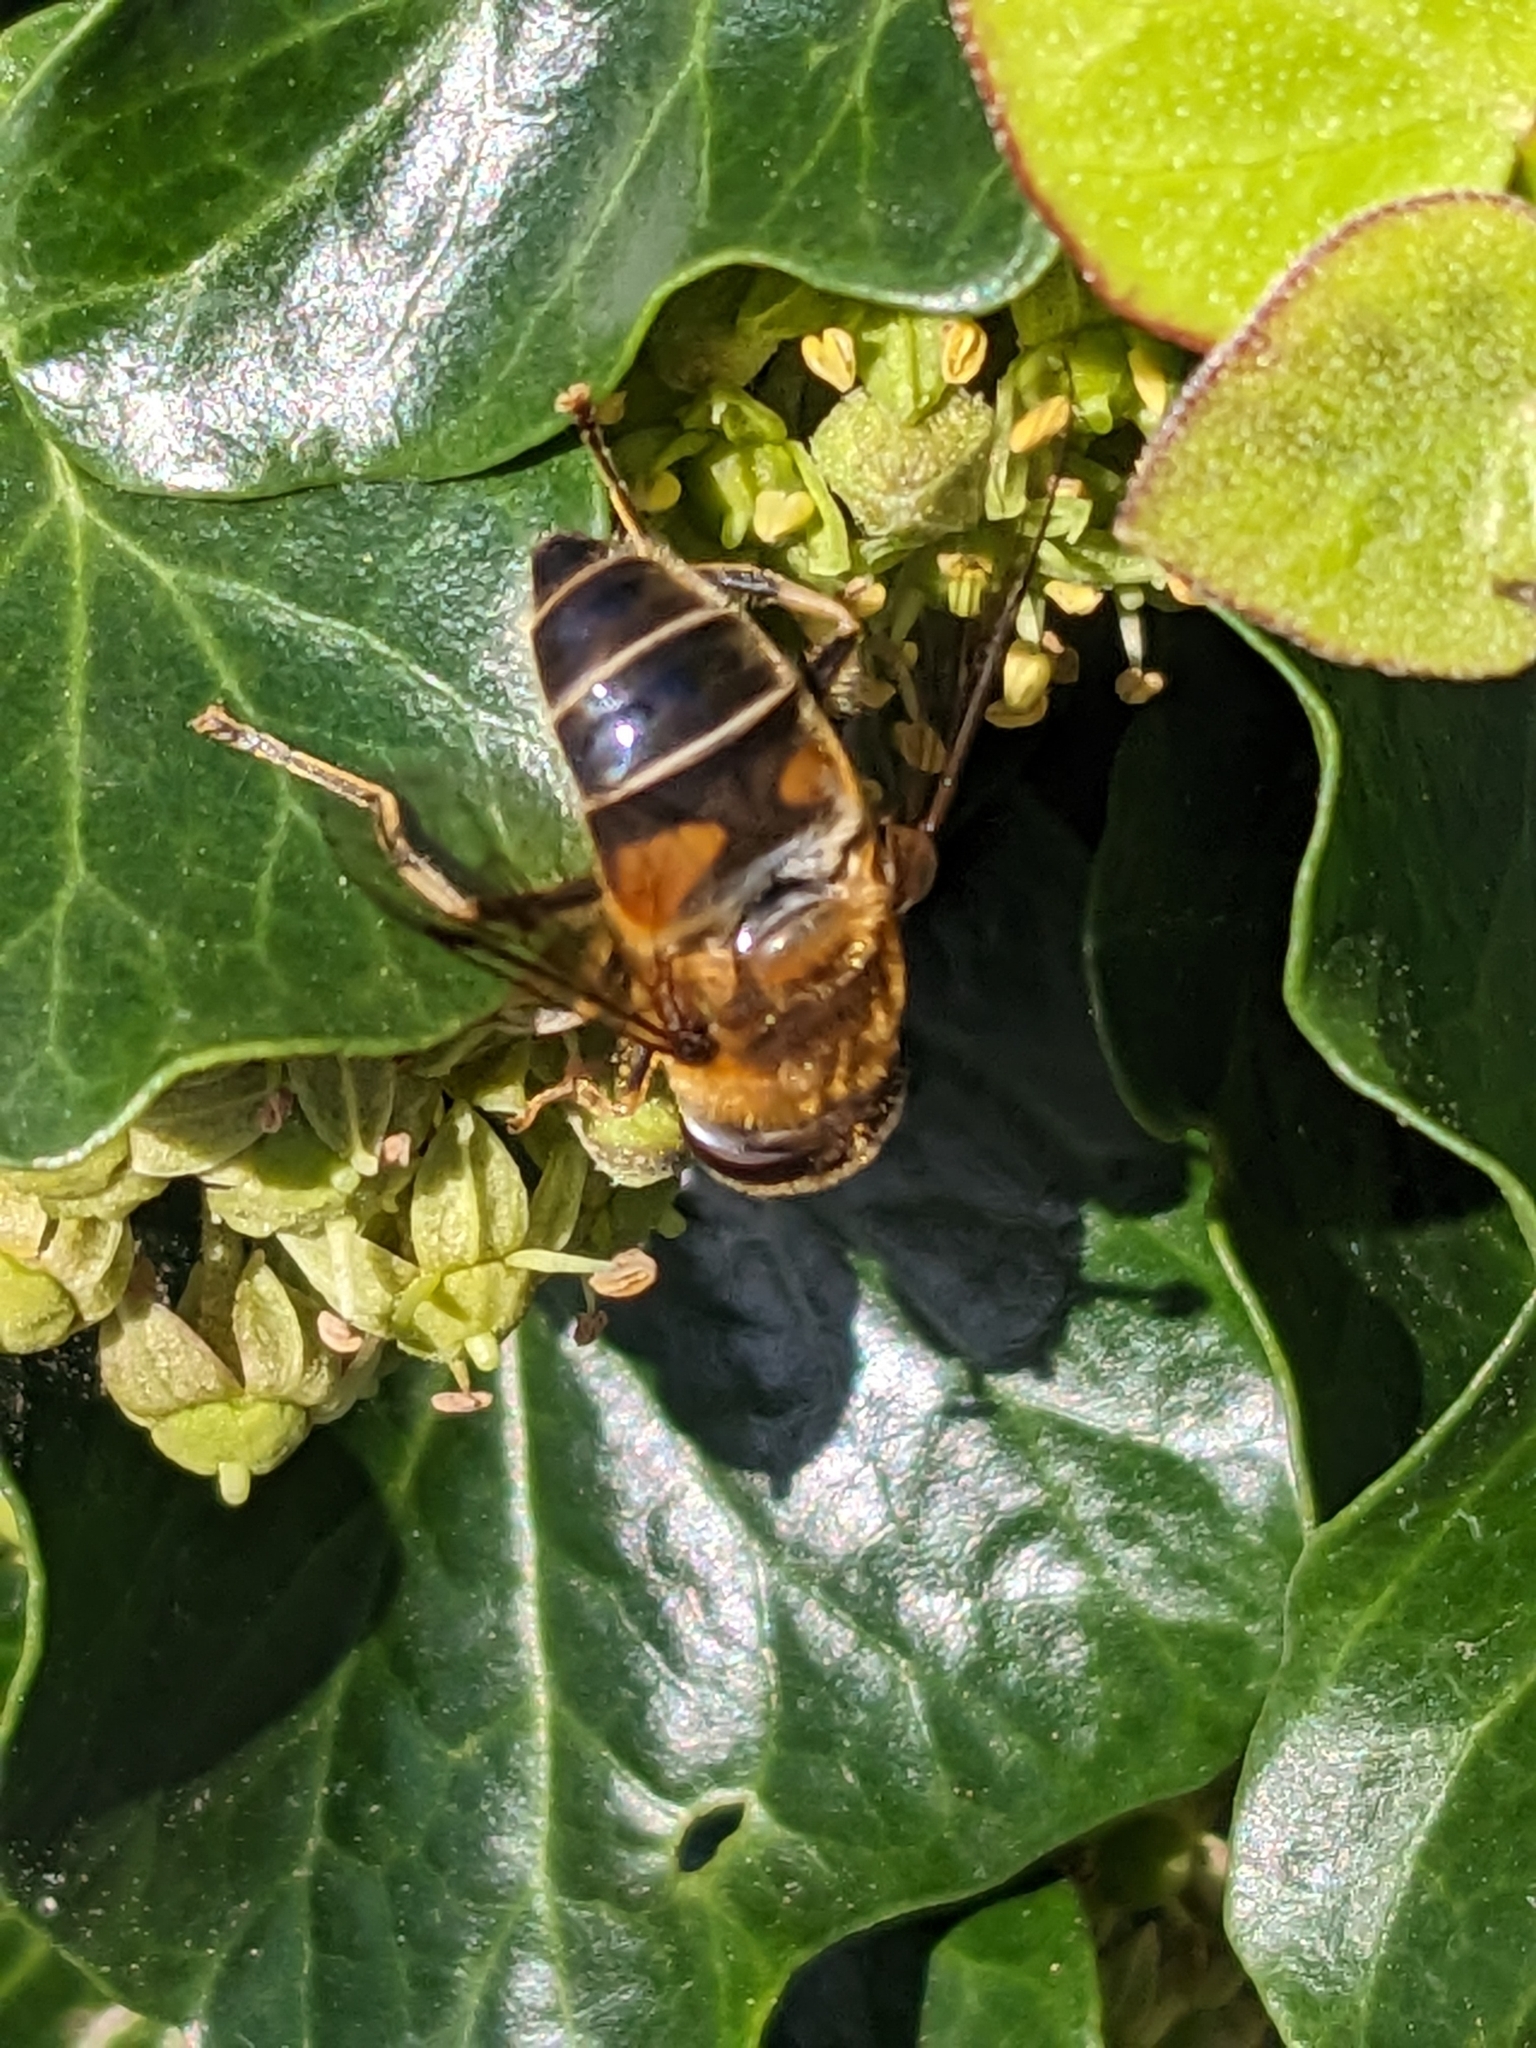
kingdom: Animalia
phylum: Arthropoda
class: Insecta
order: Diptera
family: Syrphidae
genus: Eristalis
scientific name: Eristalis pertinax
